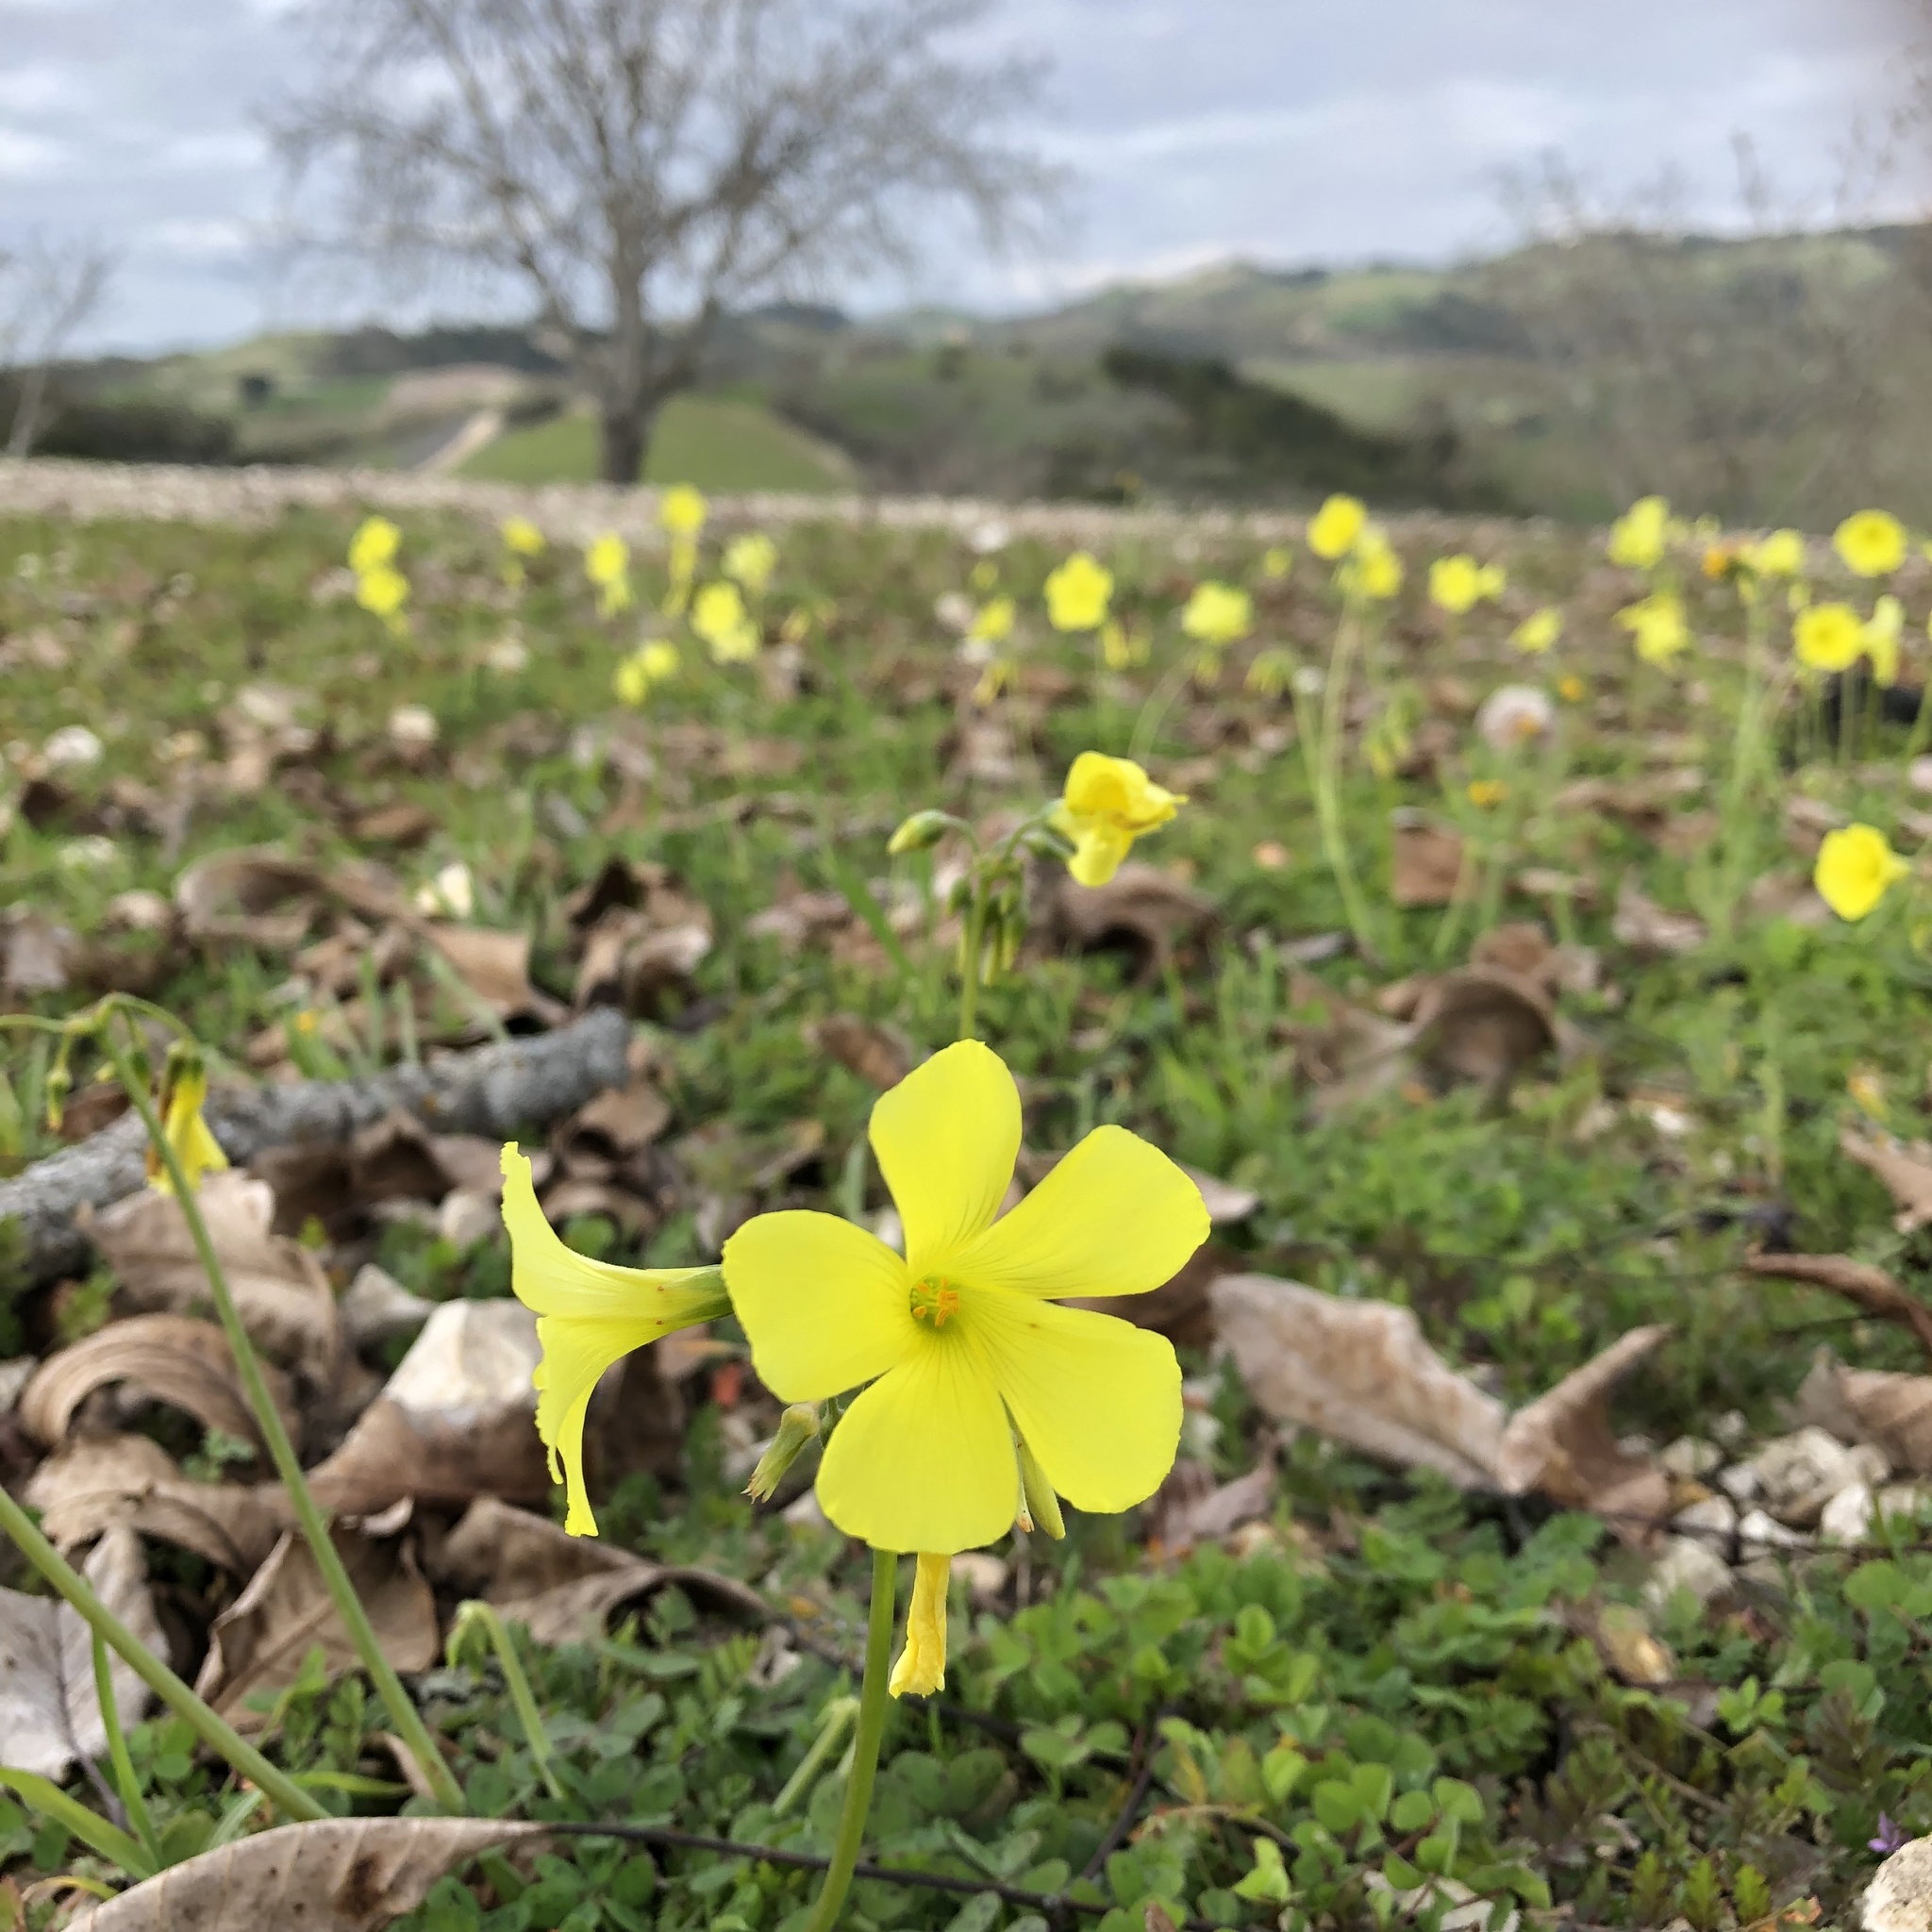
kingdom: Plantae
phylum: Tracheophyta
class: Magnoliopsida
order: Oxalidales
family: Oxalidaceae
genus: Oxalis
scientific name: Oxalis pes-caprae
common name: Bermuda-buttercup
